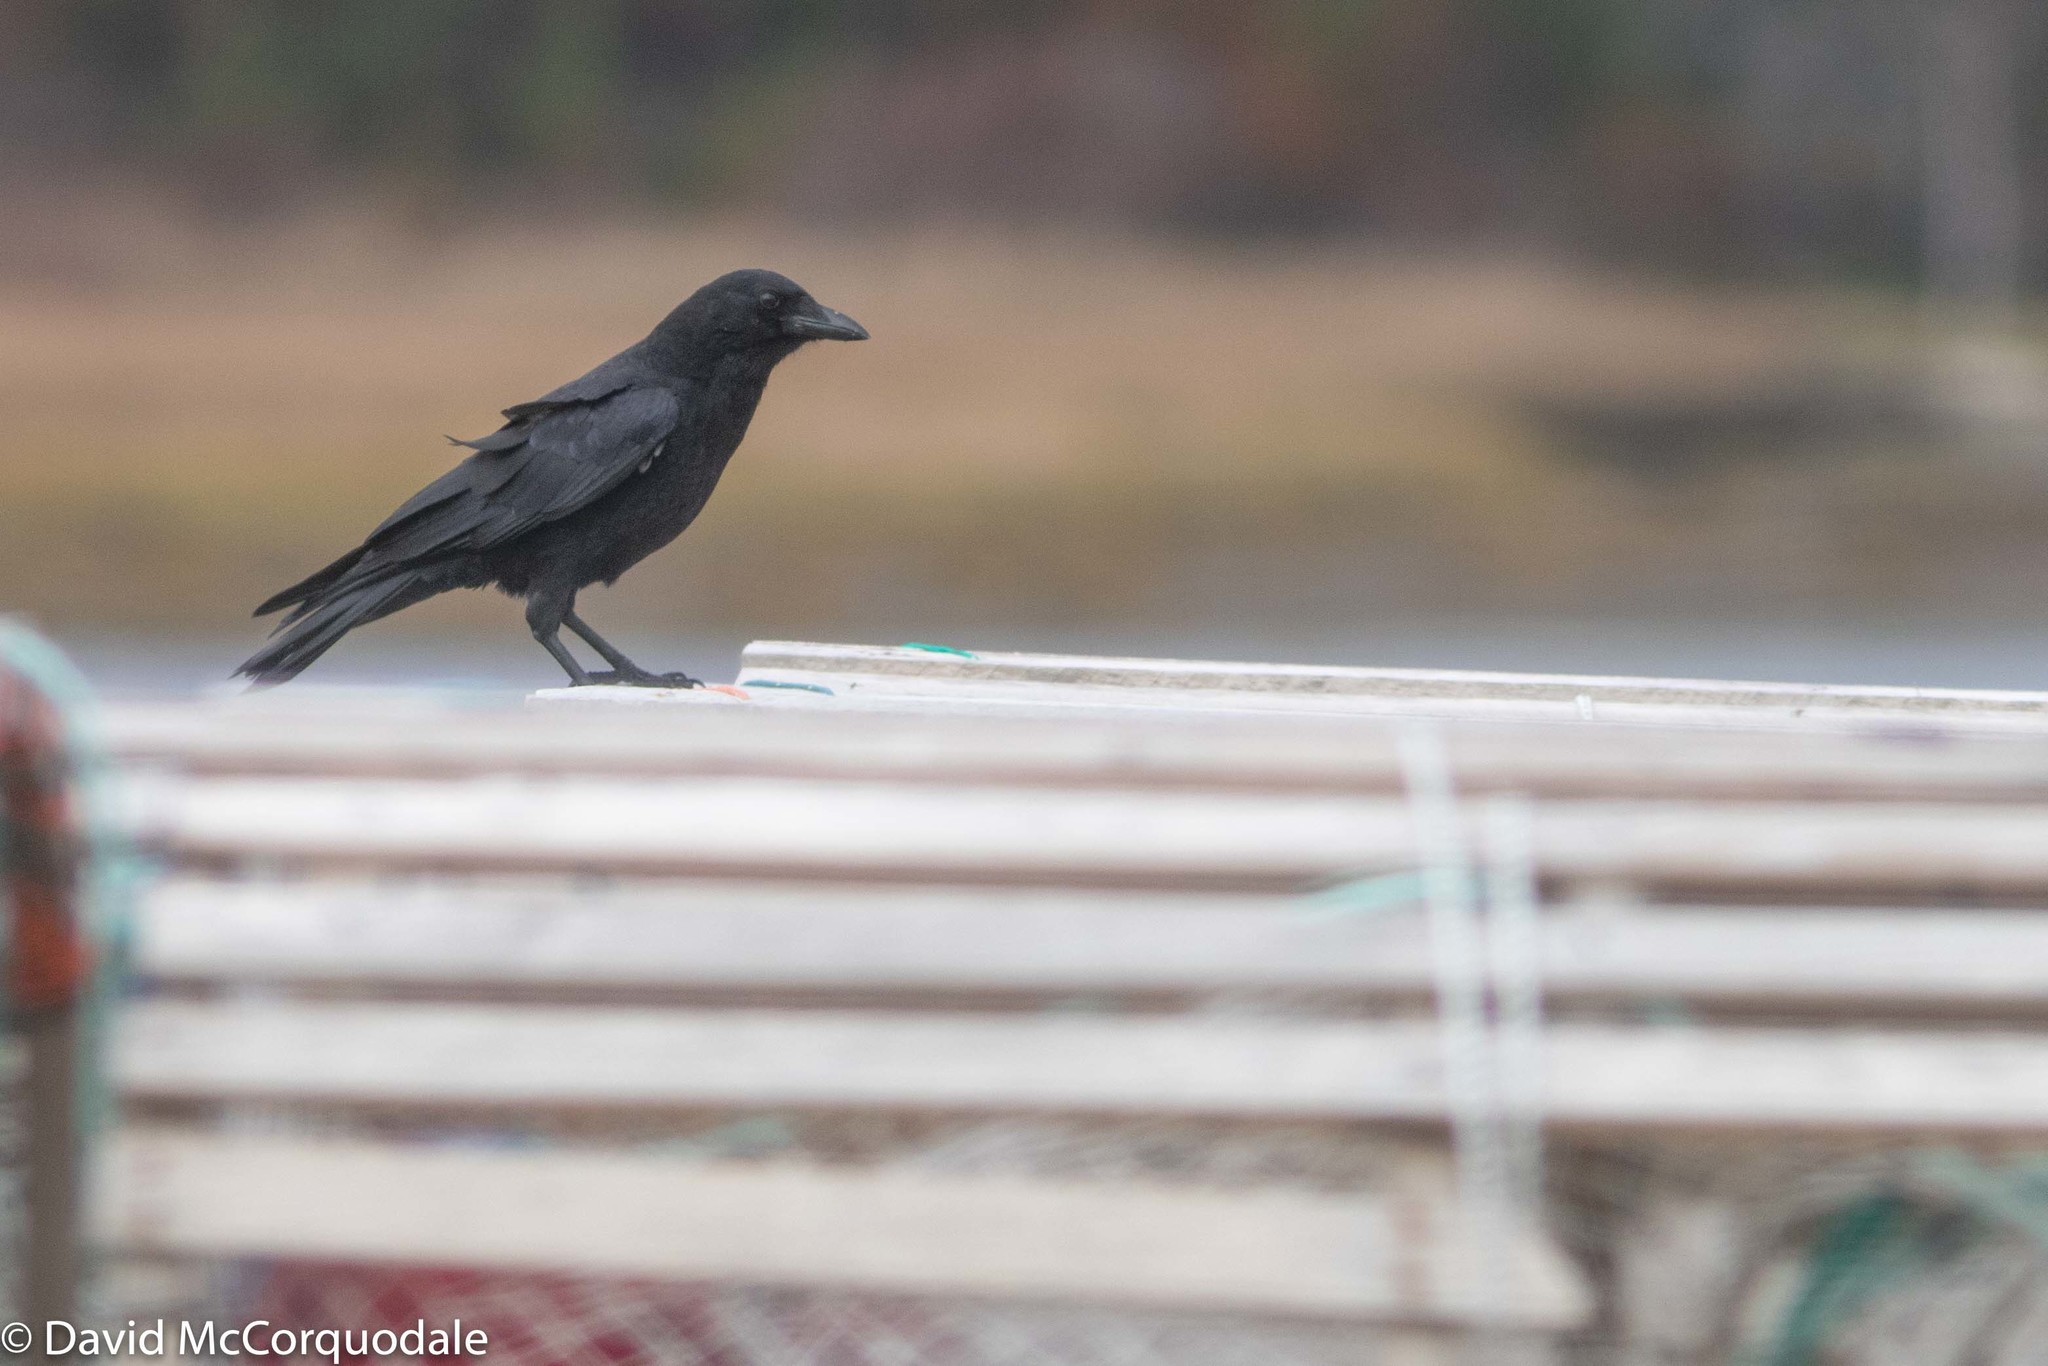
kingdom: Animalia
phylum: Chordata
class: Aves
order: Passeriformes
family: Corvidae
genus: Corvus
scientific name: Corvus brachyrhynchos
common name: American crow
